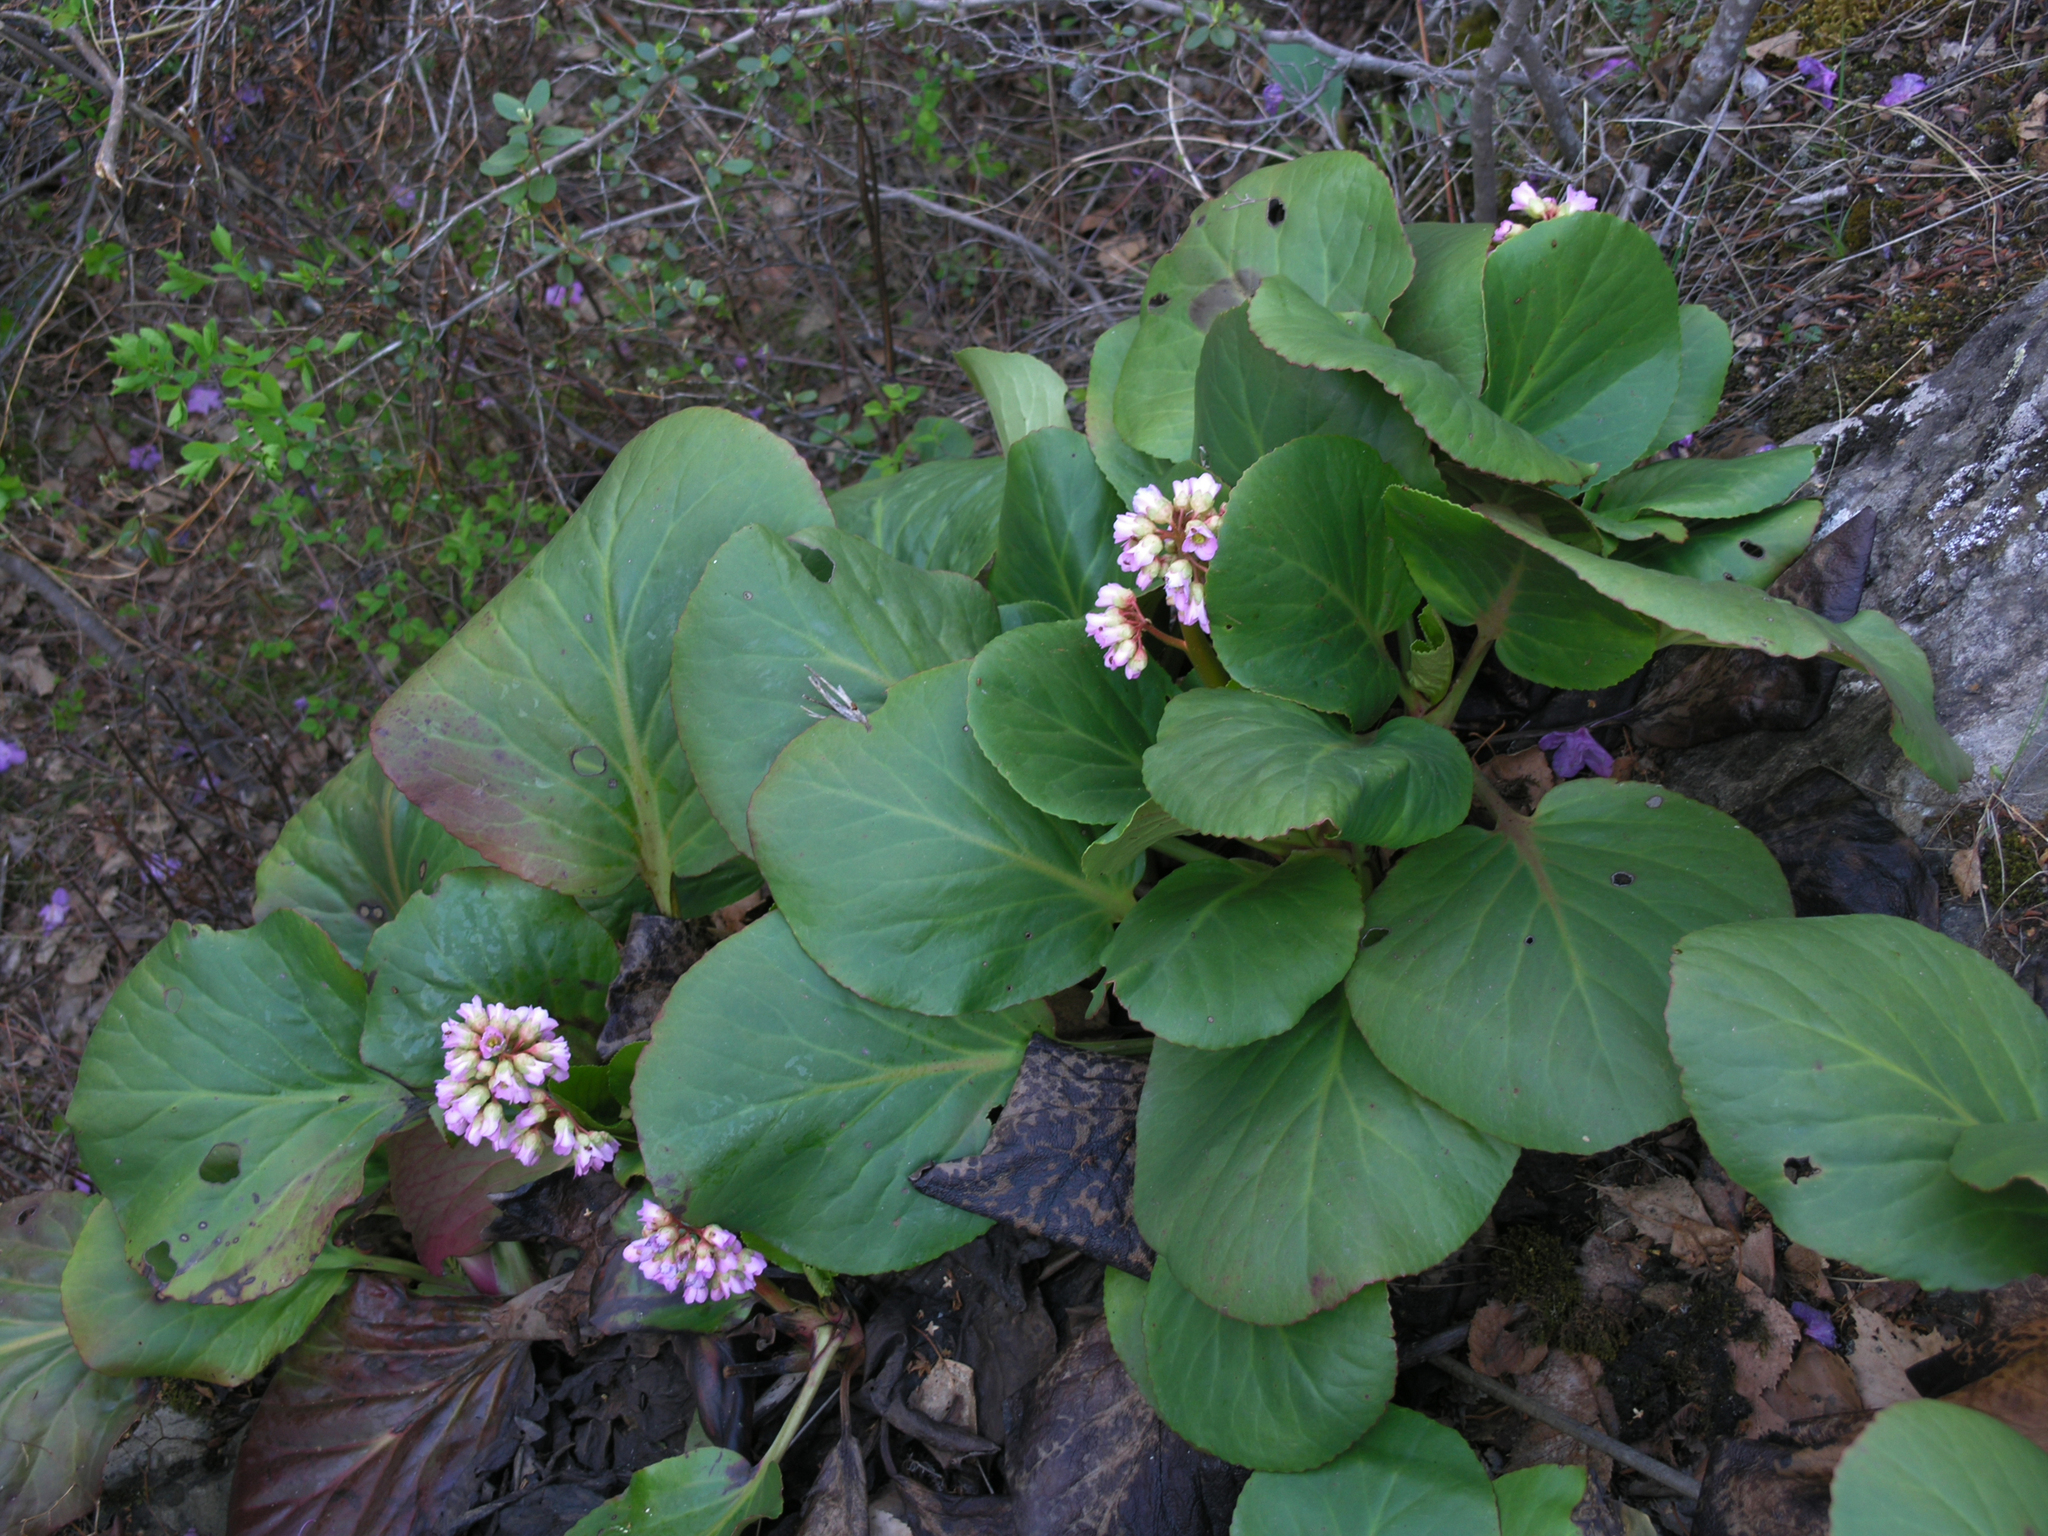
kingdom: Plantae
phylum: Tracheophyta
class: Magnoliopsida
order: Saxifragales
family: Saxifragaceae
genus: Bergenia
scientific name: Bergenia crassifolia
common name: Elephant-ears
